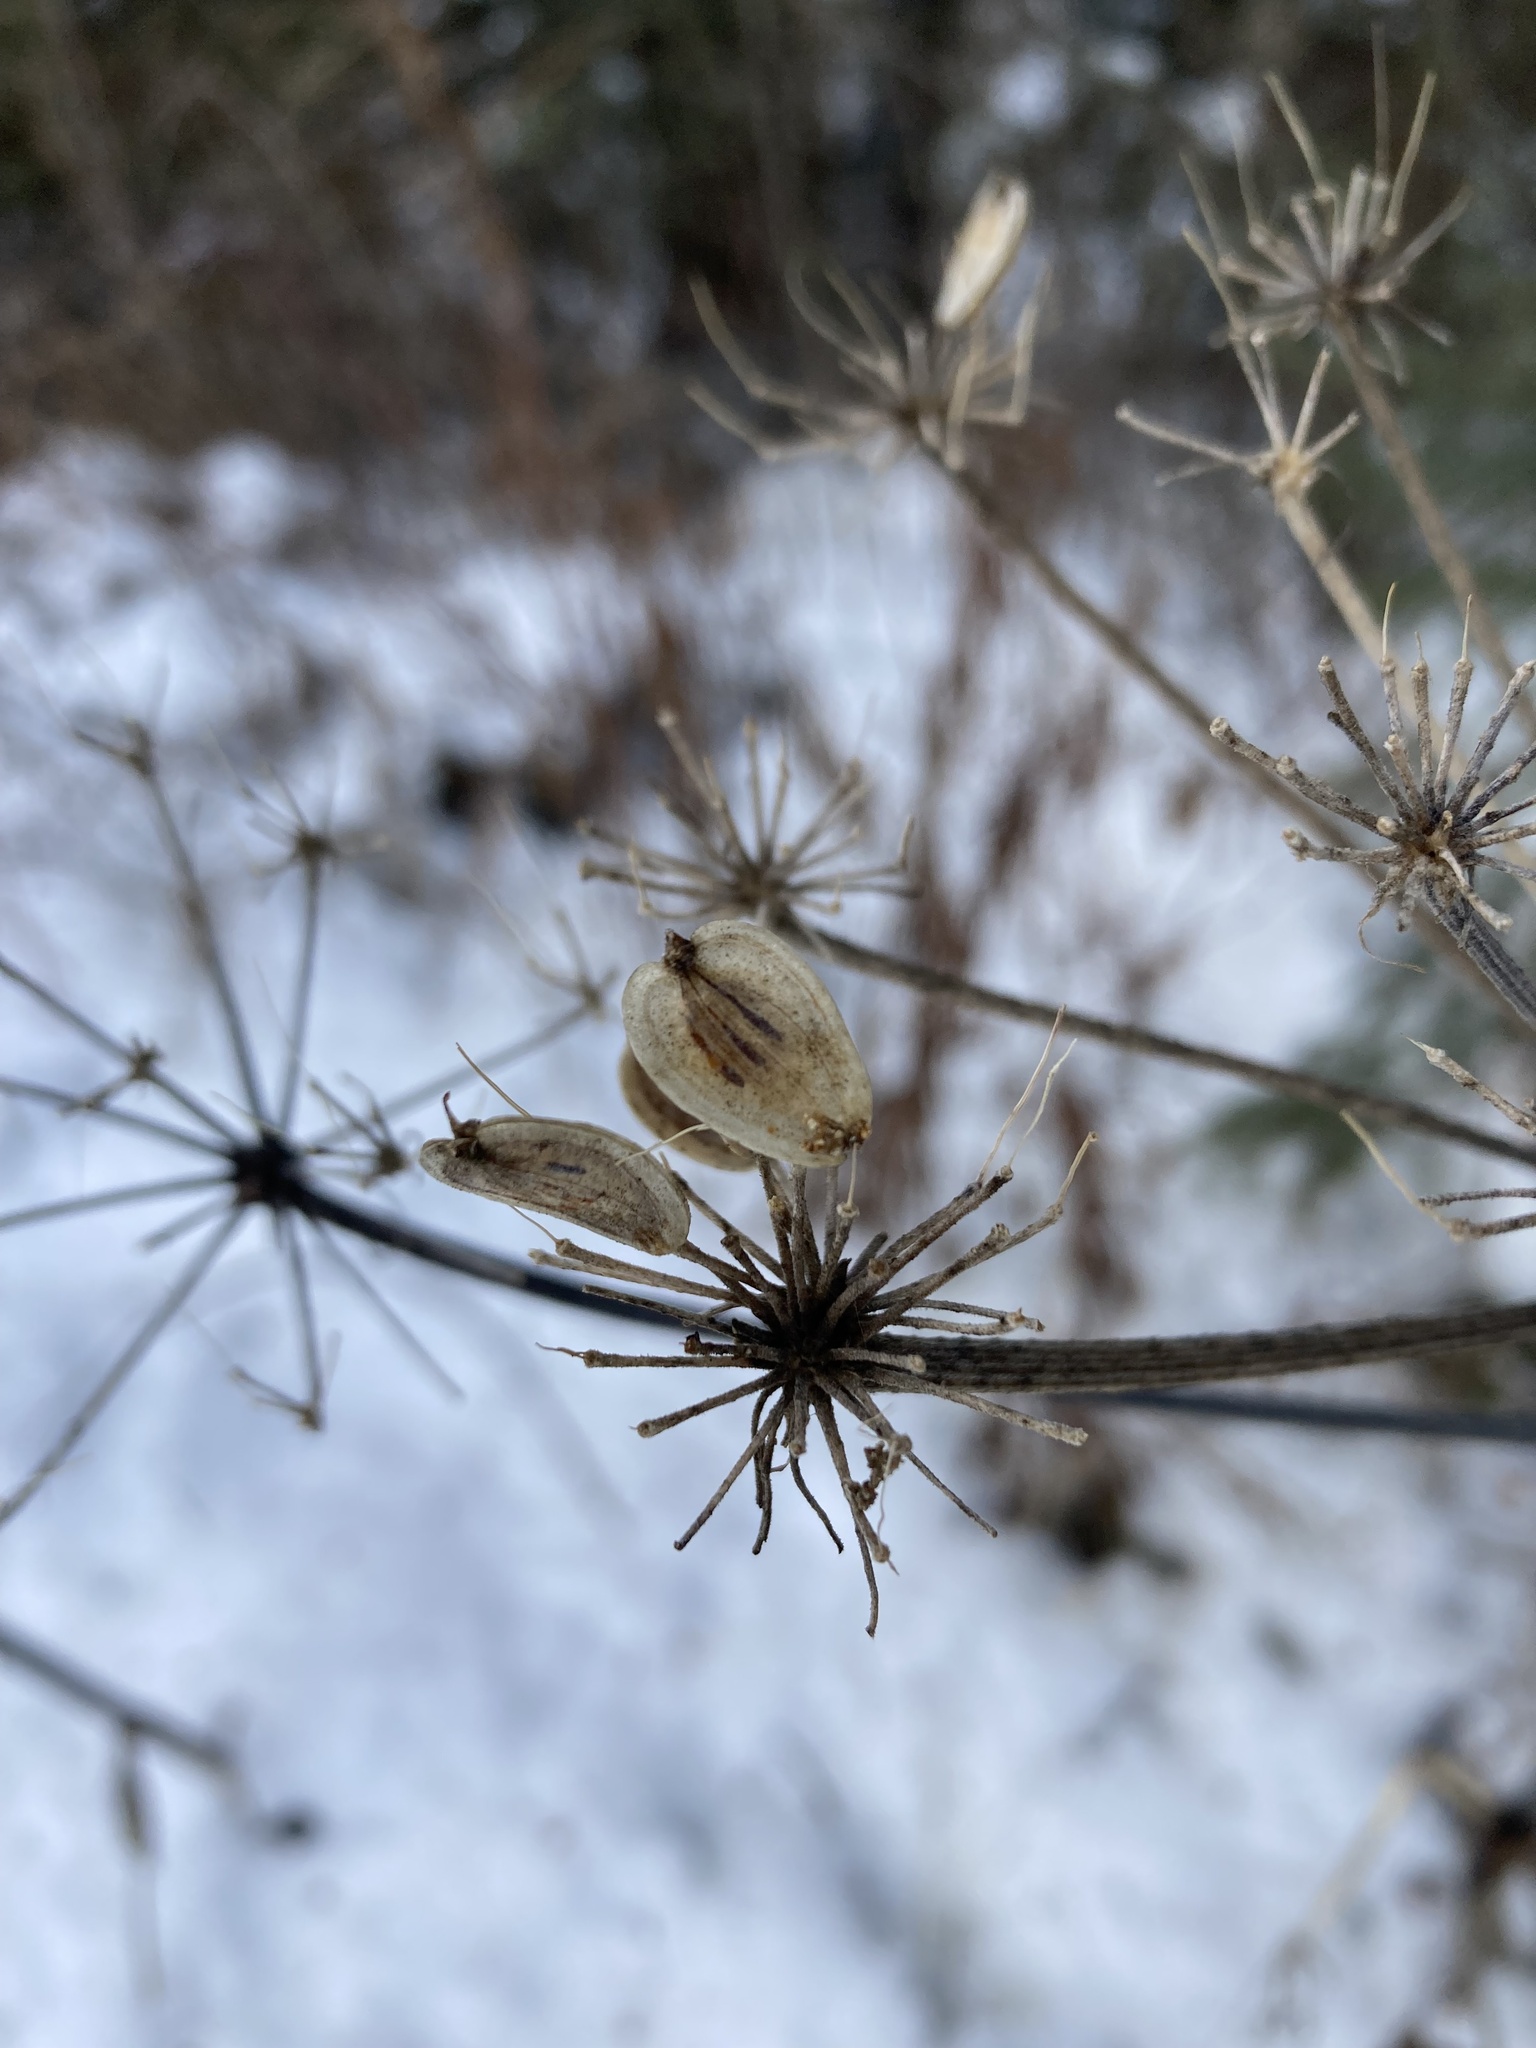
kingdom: Plantae
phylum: Tracheophyta
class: Magnoliopsida
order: Apiales
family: Apiaceae
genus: Heracleum
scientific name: Heracleum maximum
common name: American cow parsnip
